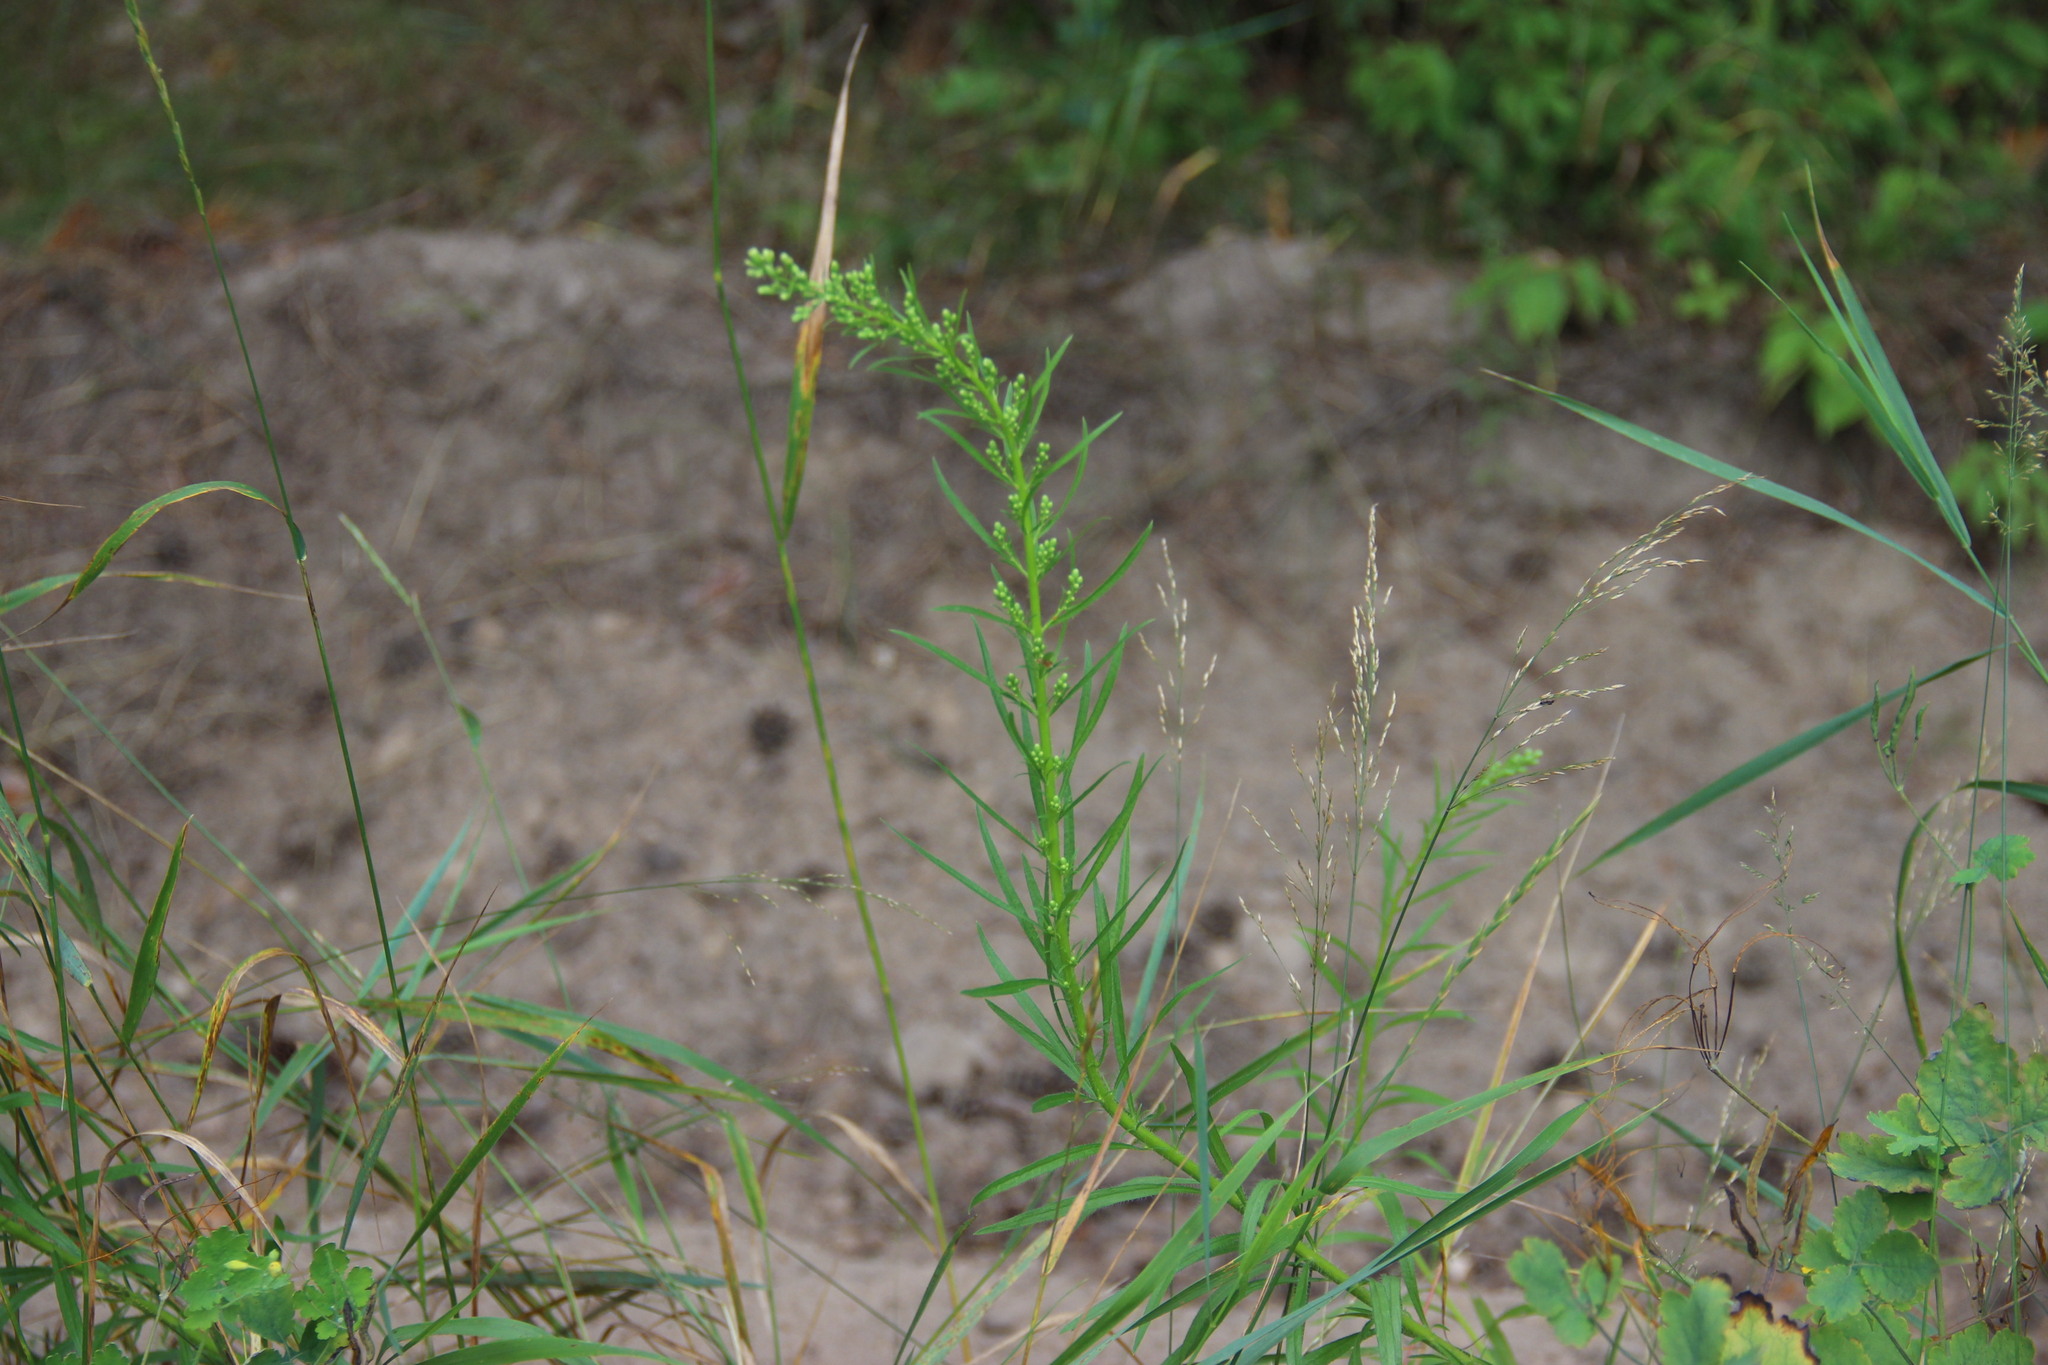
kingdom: Plantae
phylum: Tracheophyta
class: Magnoliopsida
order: Asterales
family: Asteraceae
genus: Erigeron
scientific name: Erigeron canadensis
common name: Canadian fleabane
